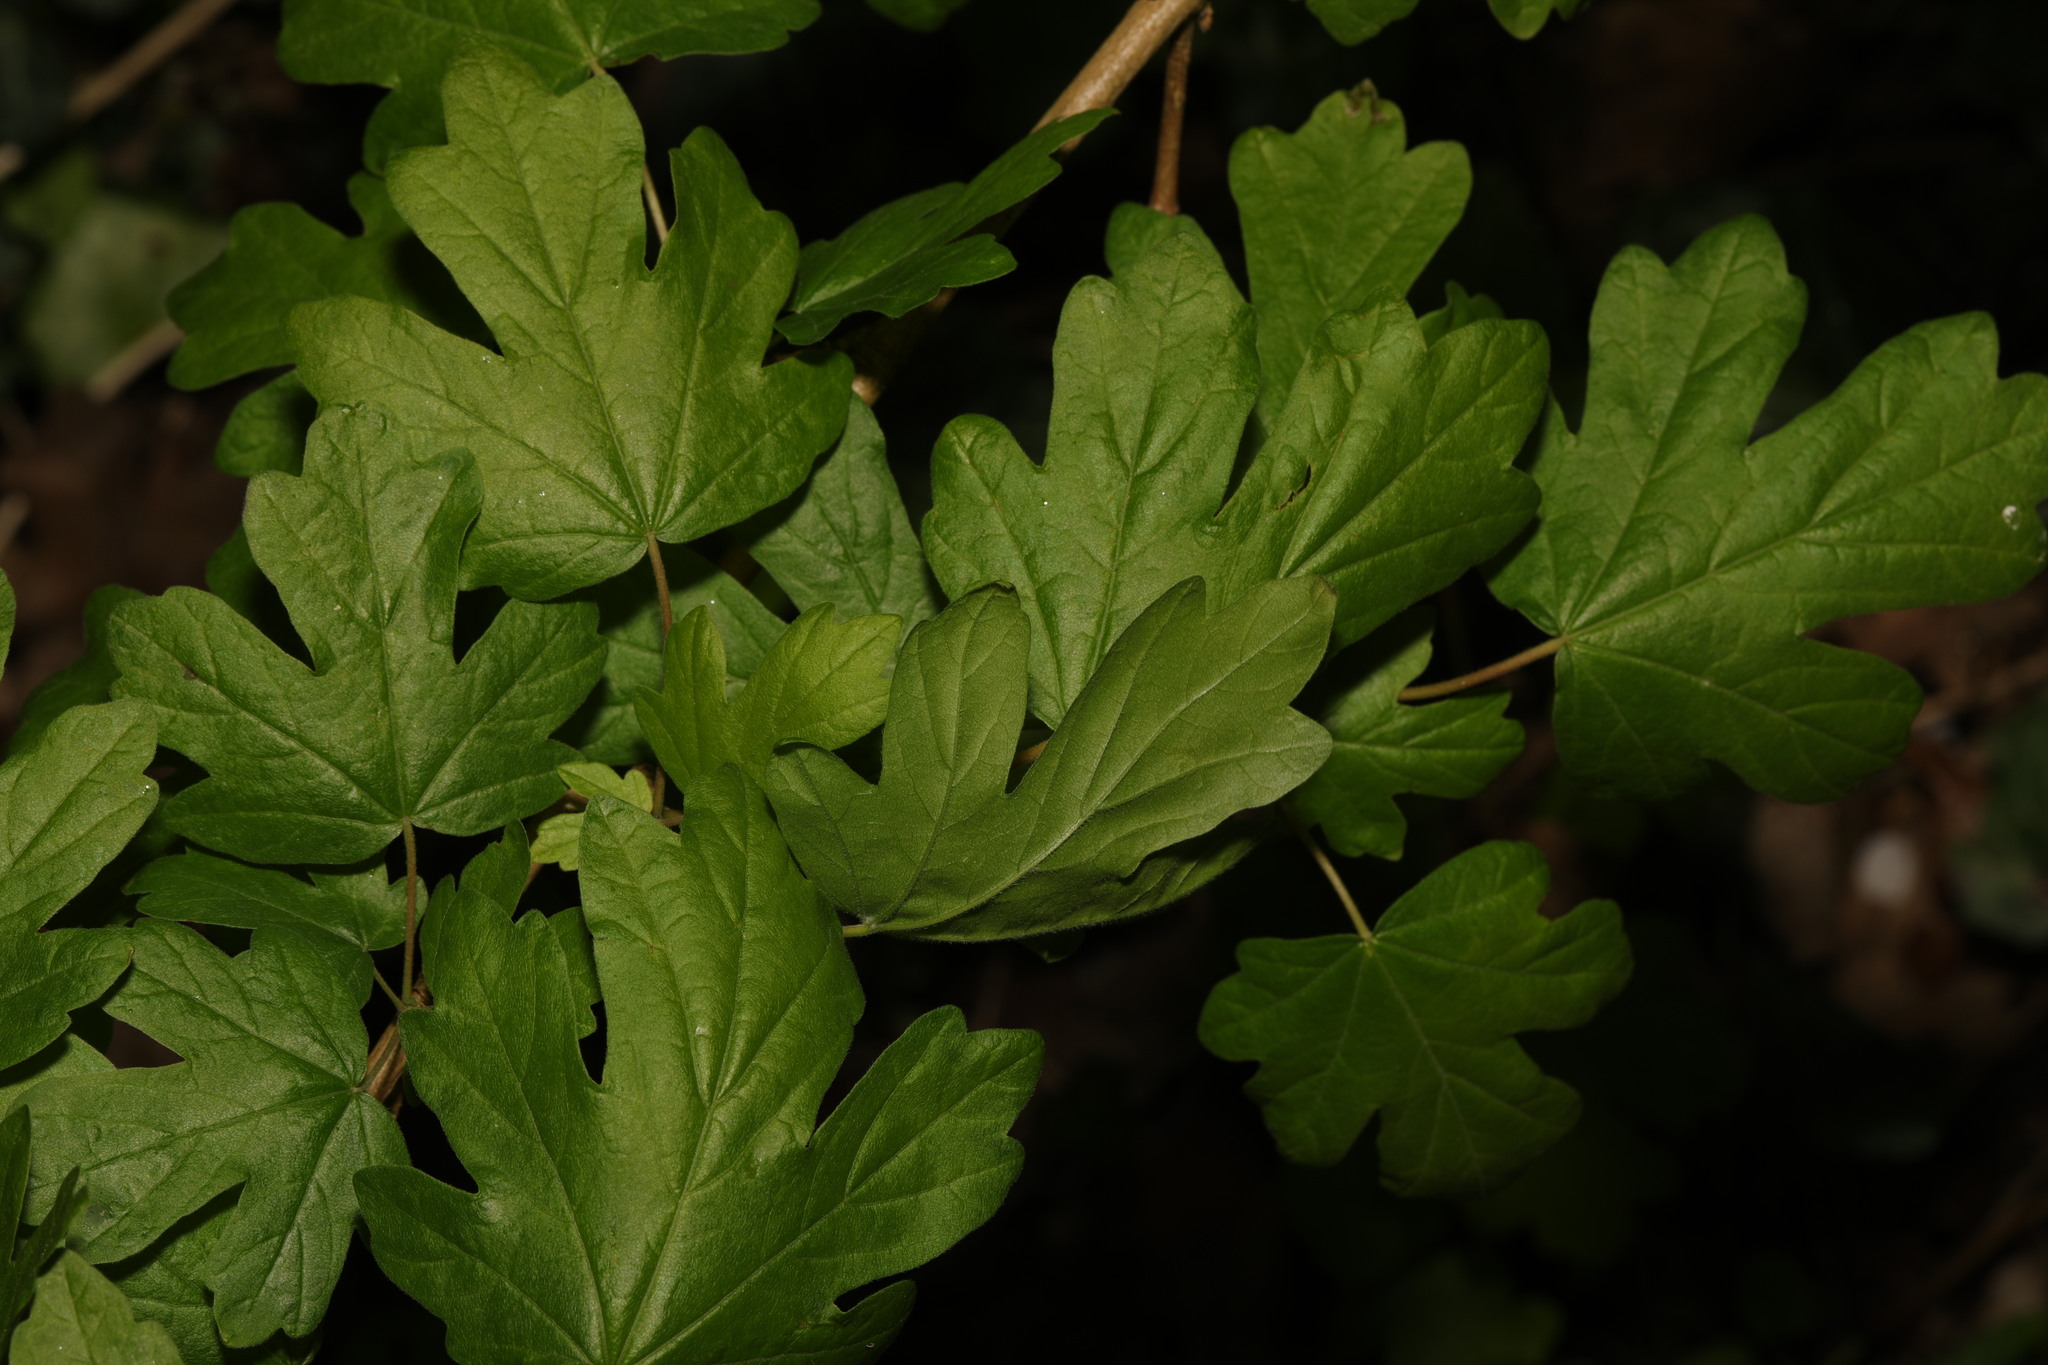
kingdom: Plantae
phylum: Tracheophyta
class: Magnoliopsida
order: Sapindales
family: Sapindaceae
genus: Acer
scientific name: Acer campestre
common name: Field maple
